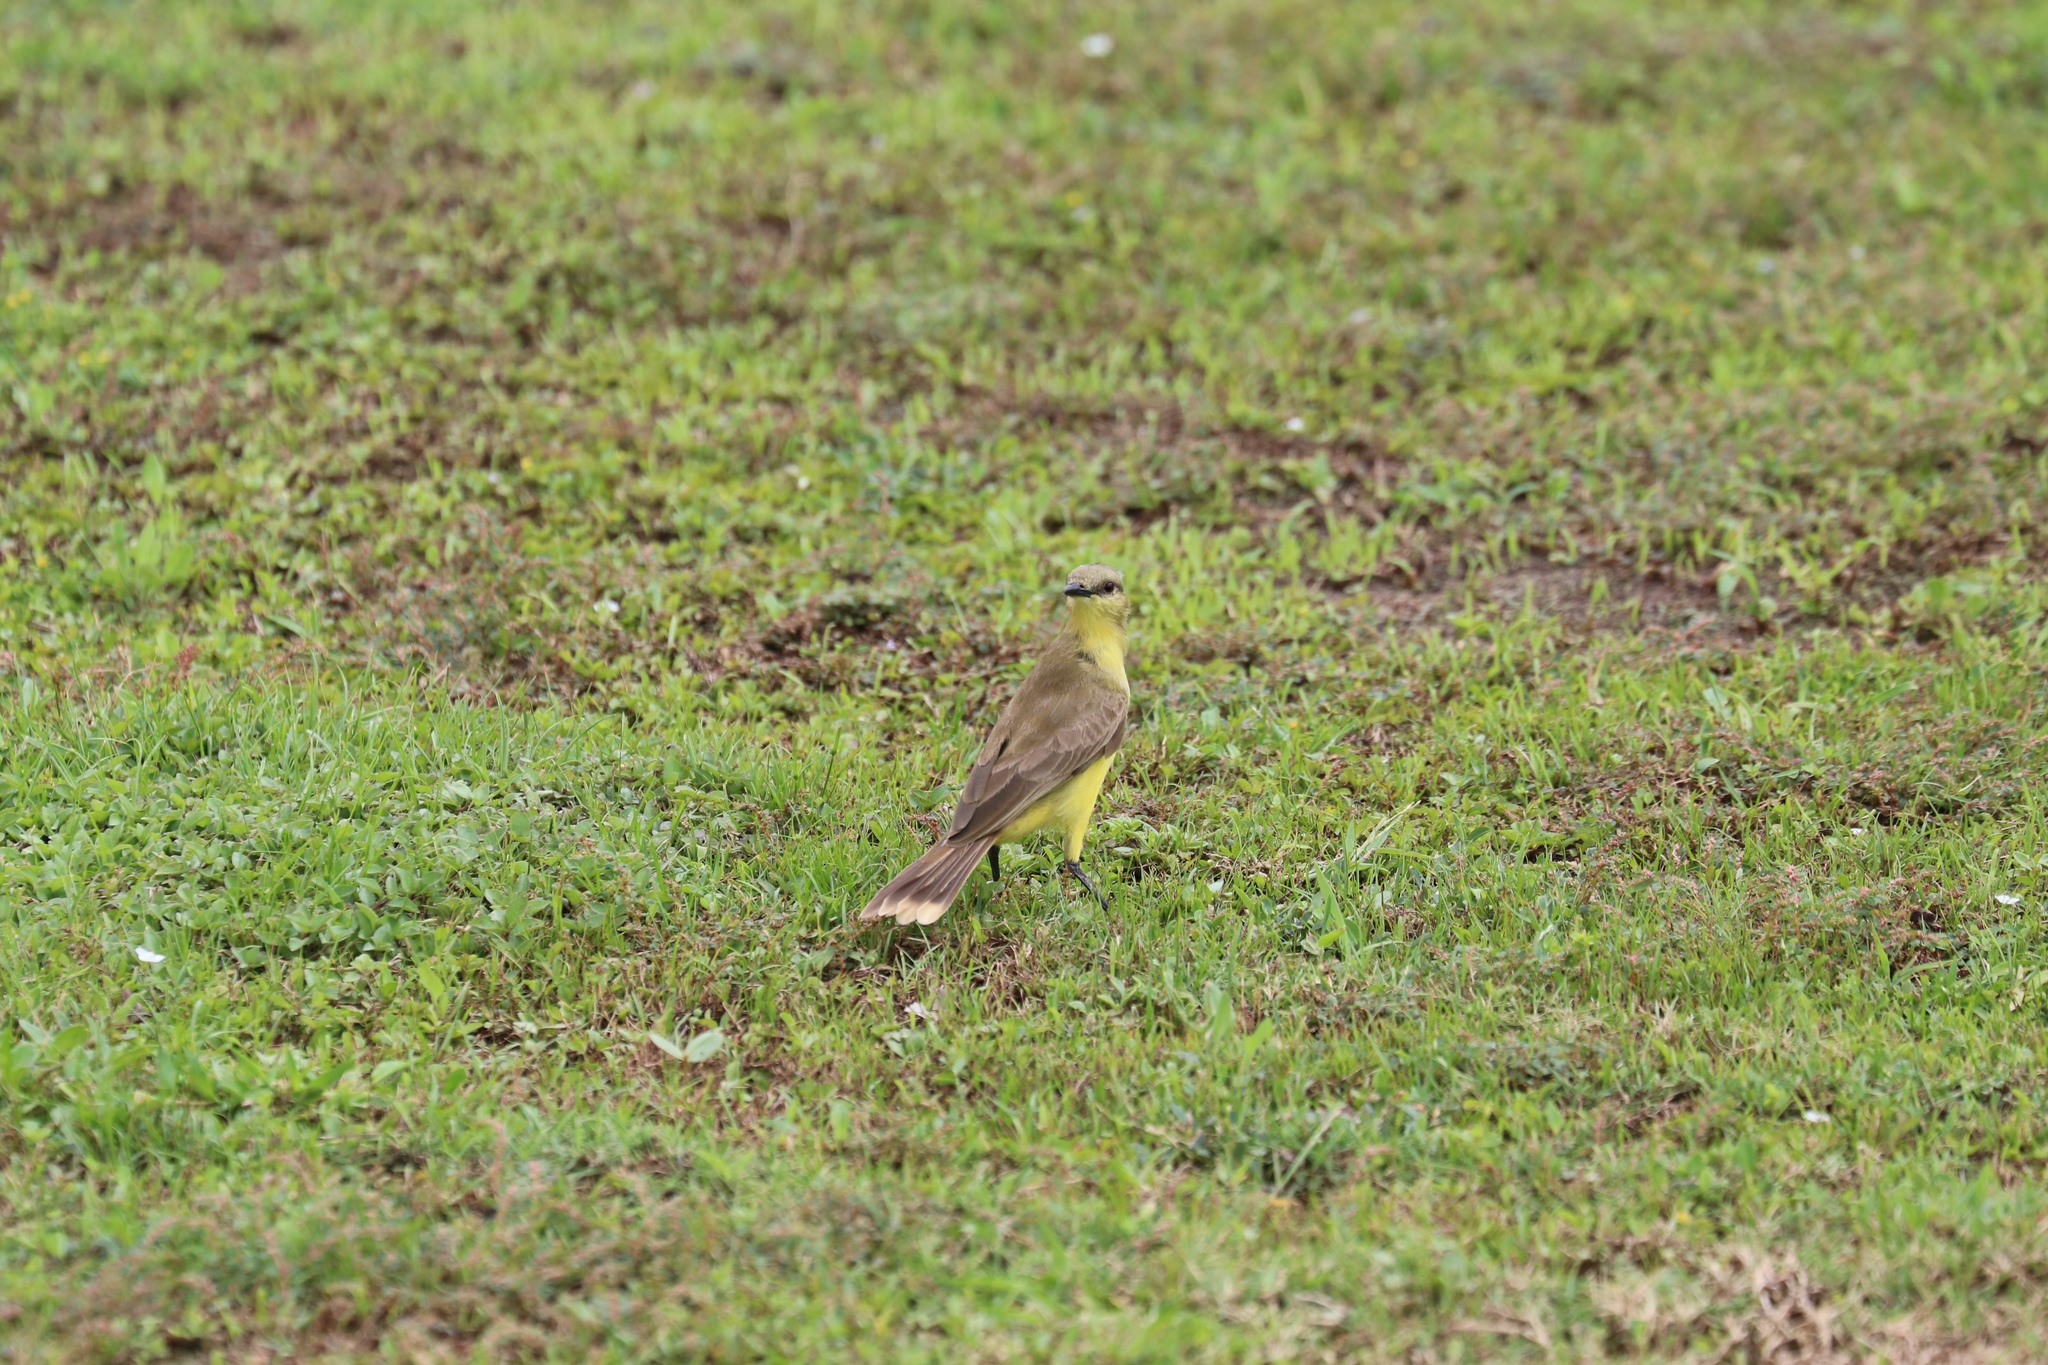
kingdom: Animalia
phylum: Chordata
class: Aves
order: Passeriformes
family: Tyrannidae
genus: Machetornis
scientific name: Machetornis rixosa
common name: Cattle tyrant
